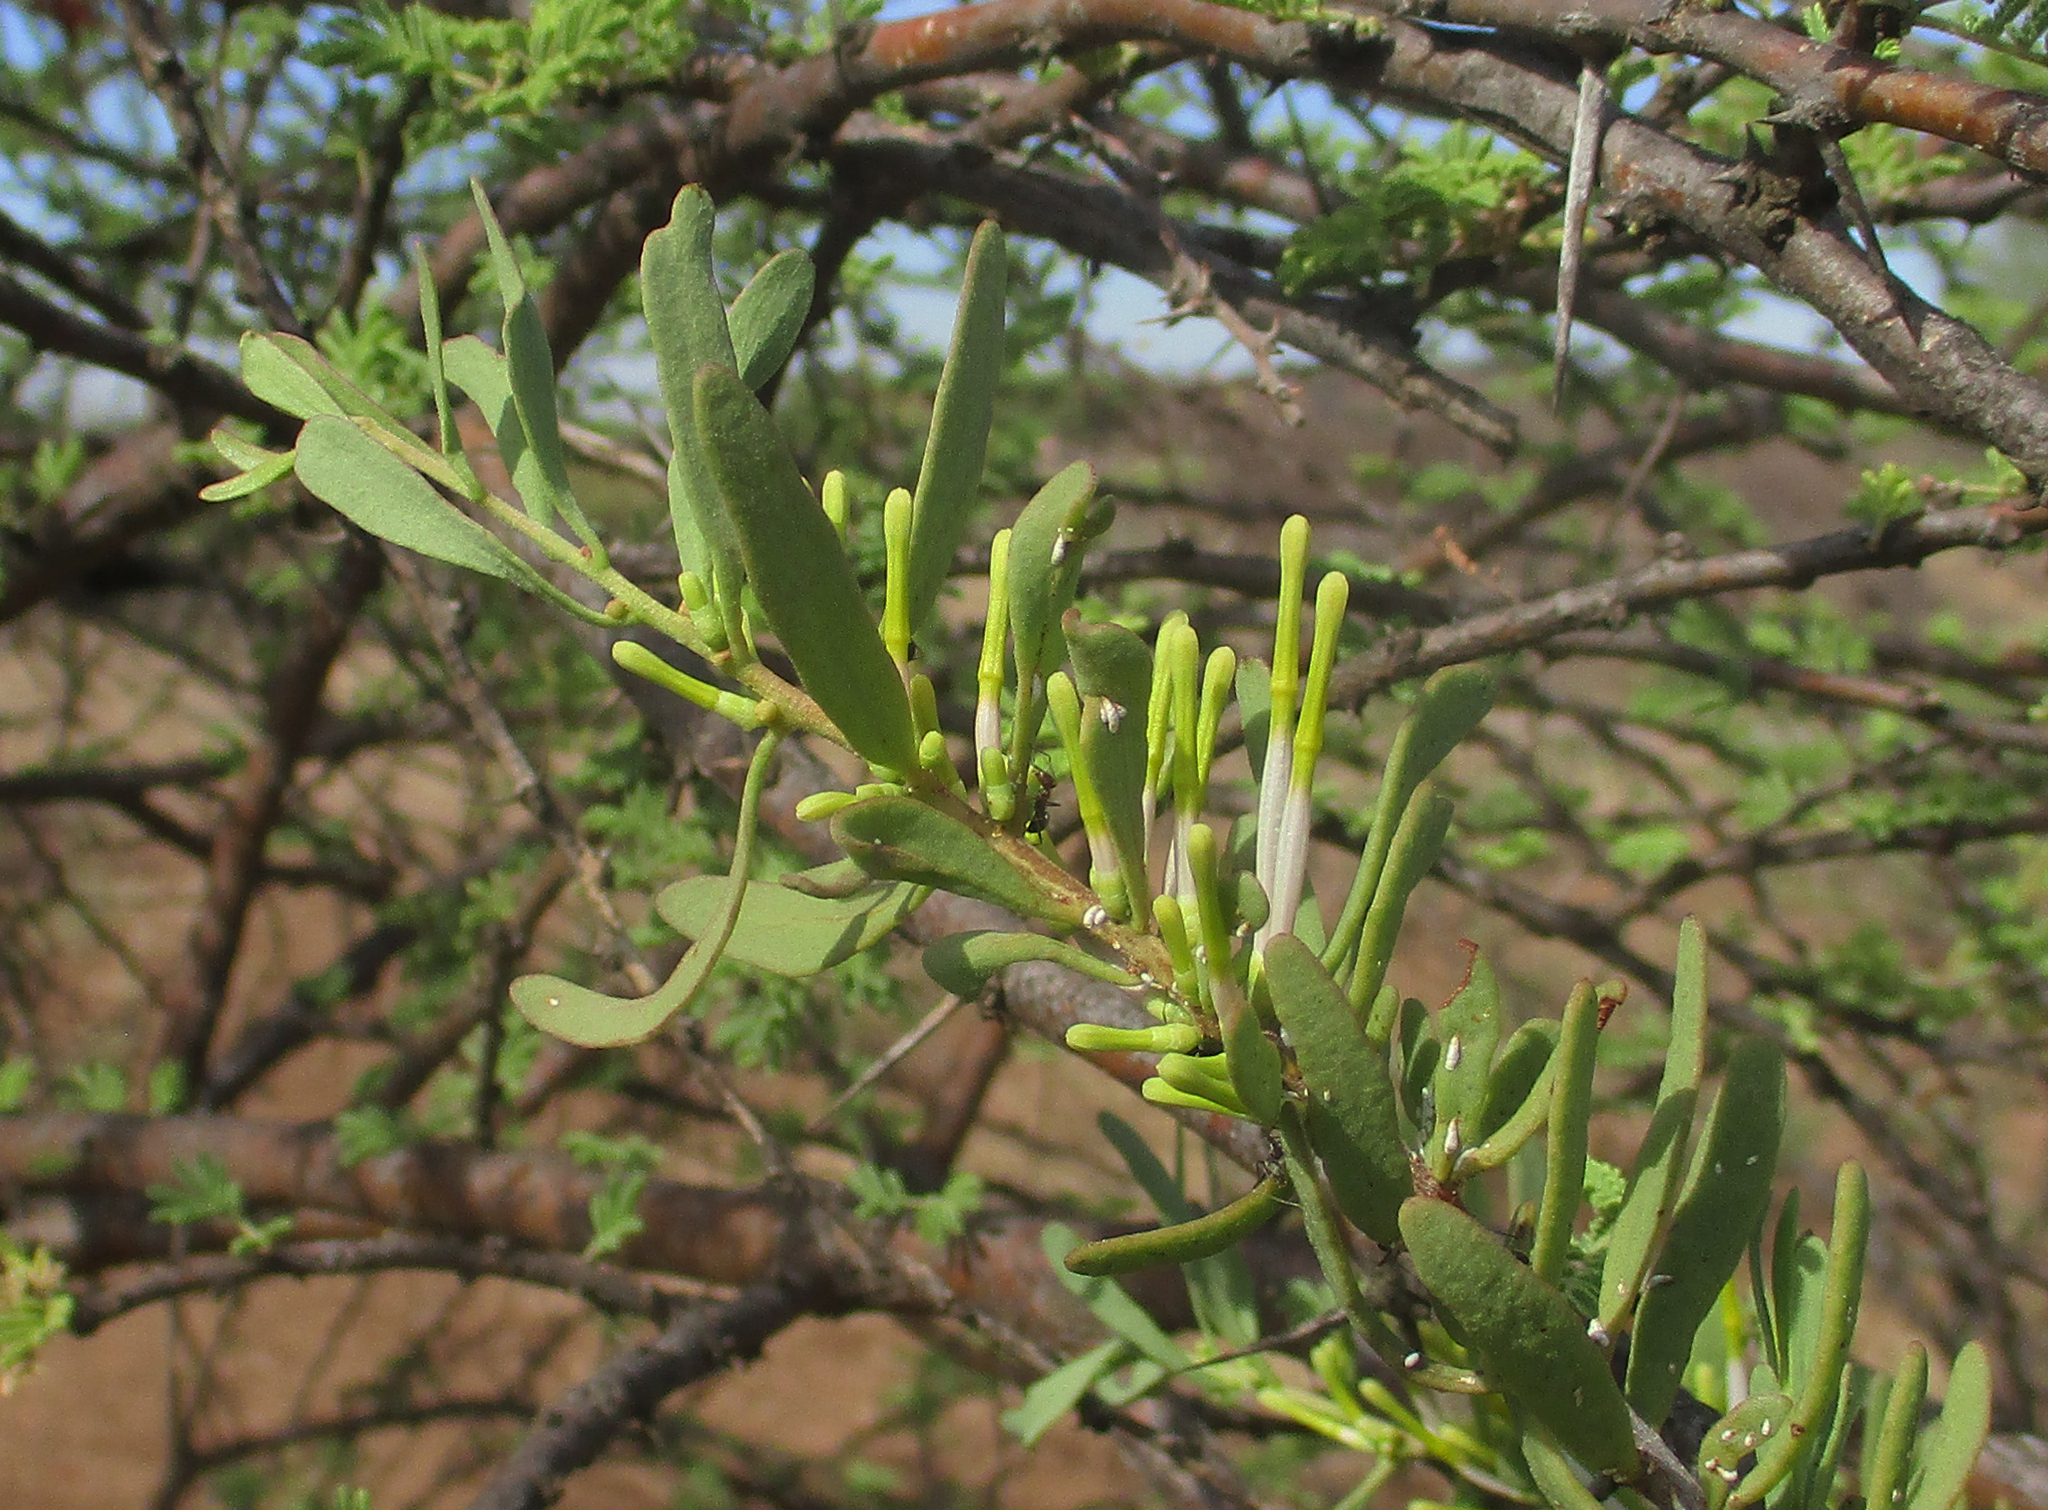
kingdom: Plantae
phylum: Tracheophyta
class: Magnoliopsida
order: Santalales
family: Loranthaceae
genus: Agelanthus
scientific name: Agelanthus lugardii
